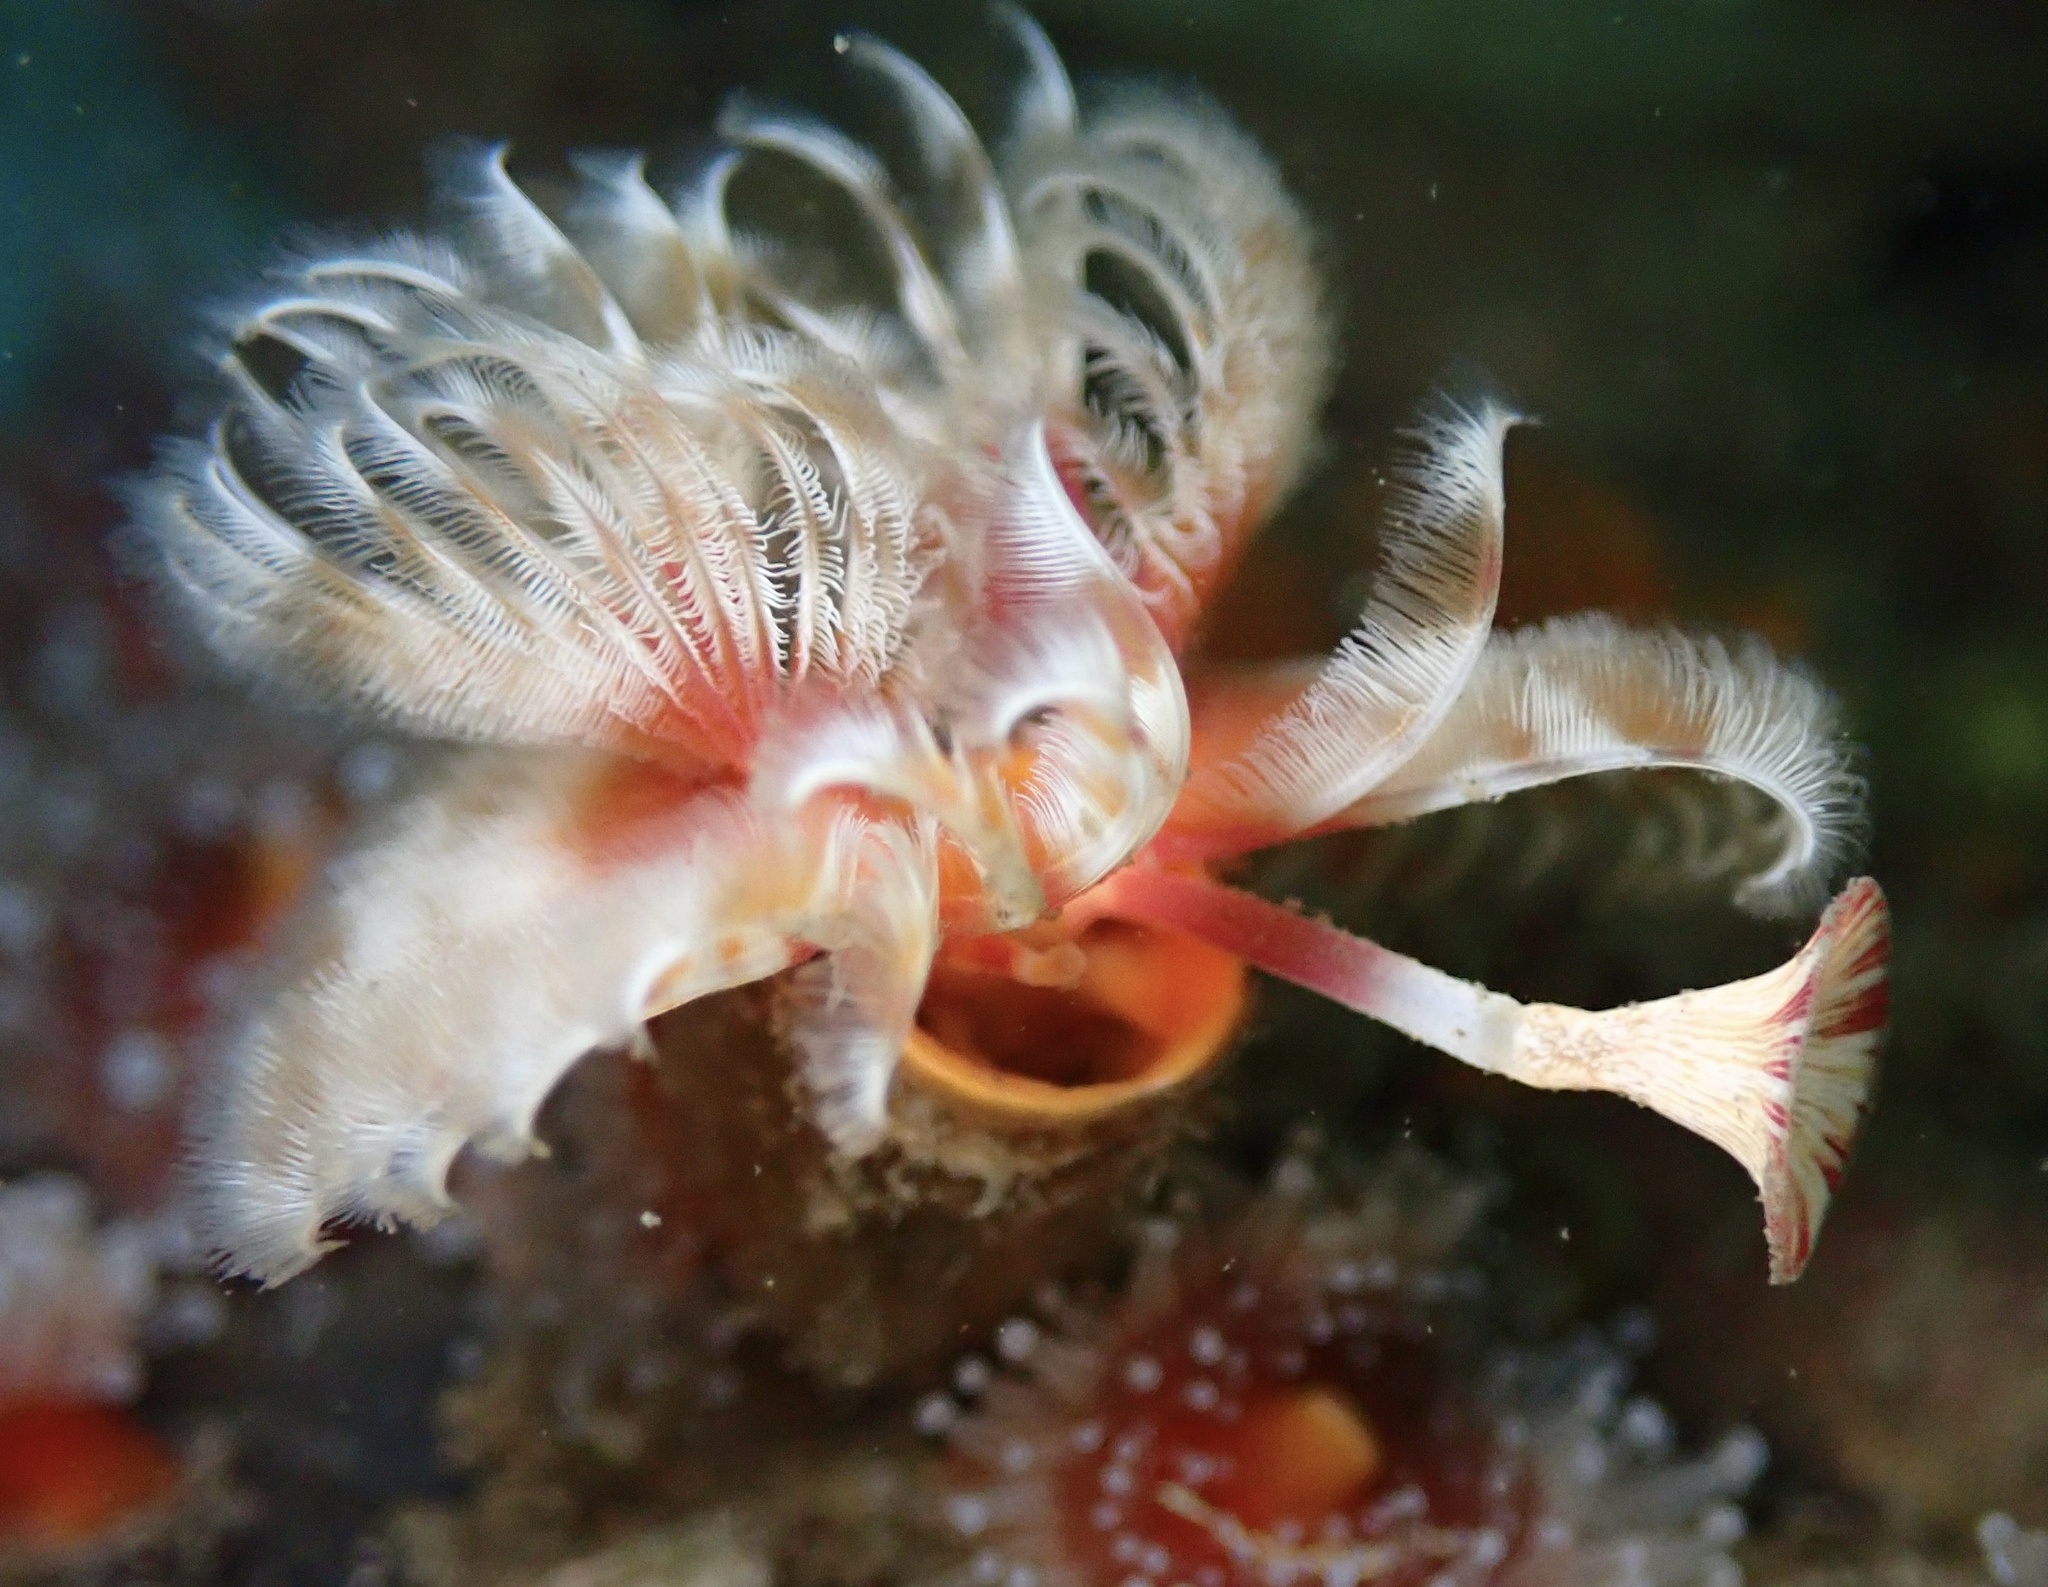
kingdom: Animalia
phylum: Annelida
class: Polychaeta
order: Sabellida
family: Serpulidae
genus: Serpula
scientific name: Serpula columbiana
